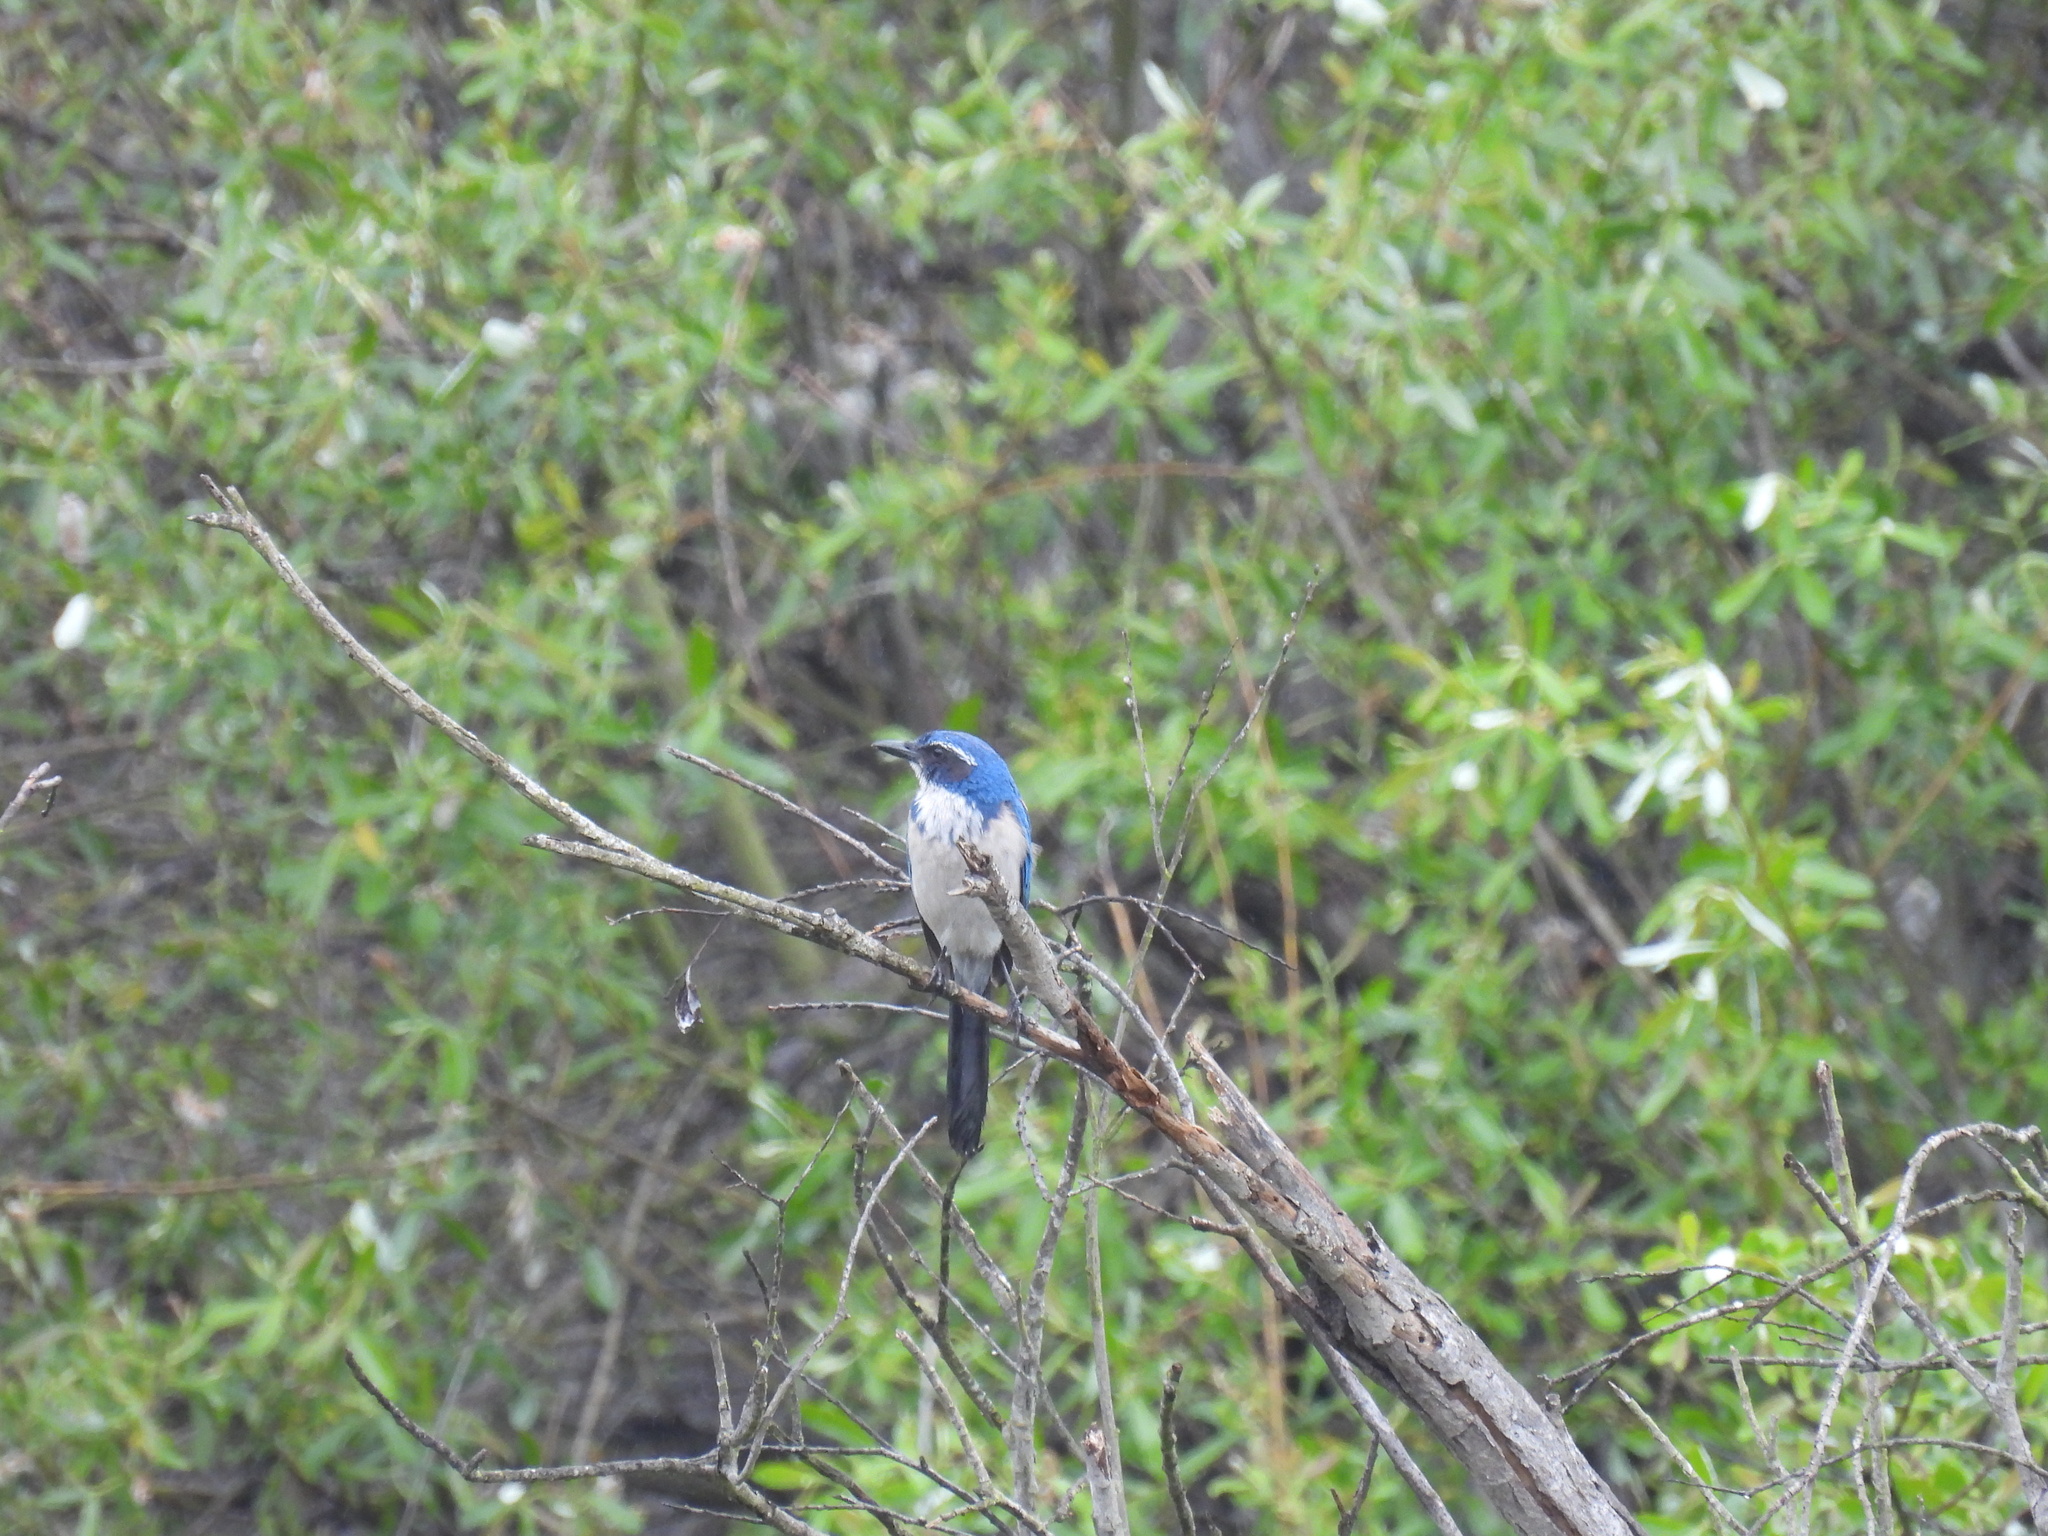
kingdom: Animalia
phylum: Chordata
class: Aves
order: Passeriformes
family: Corvidae
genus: Aphelocoma
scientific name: Aphelocoma californica
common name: California scrub-jay
